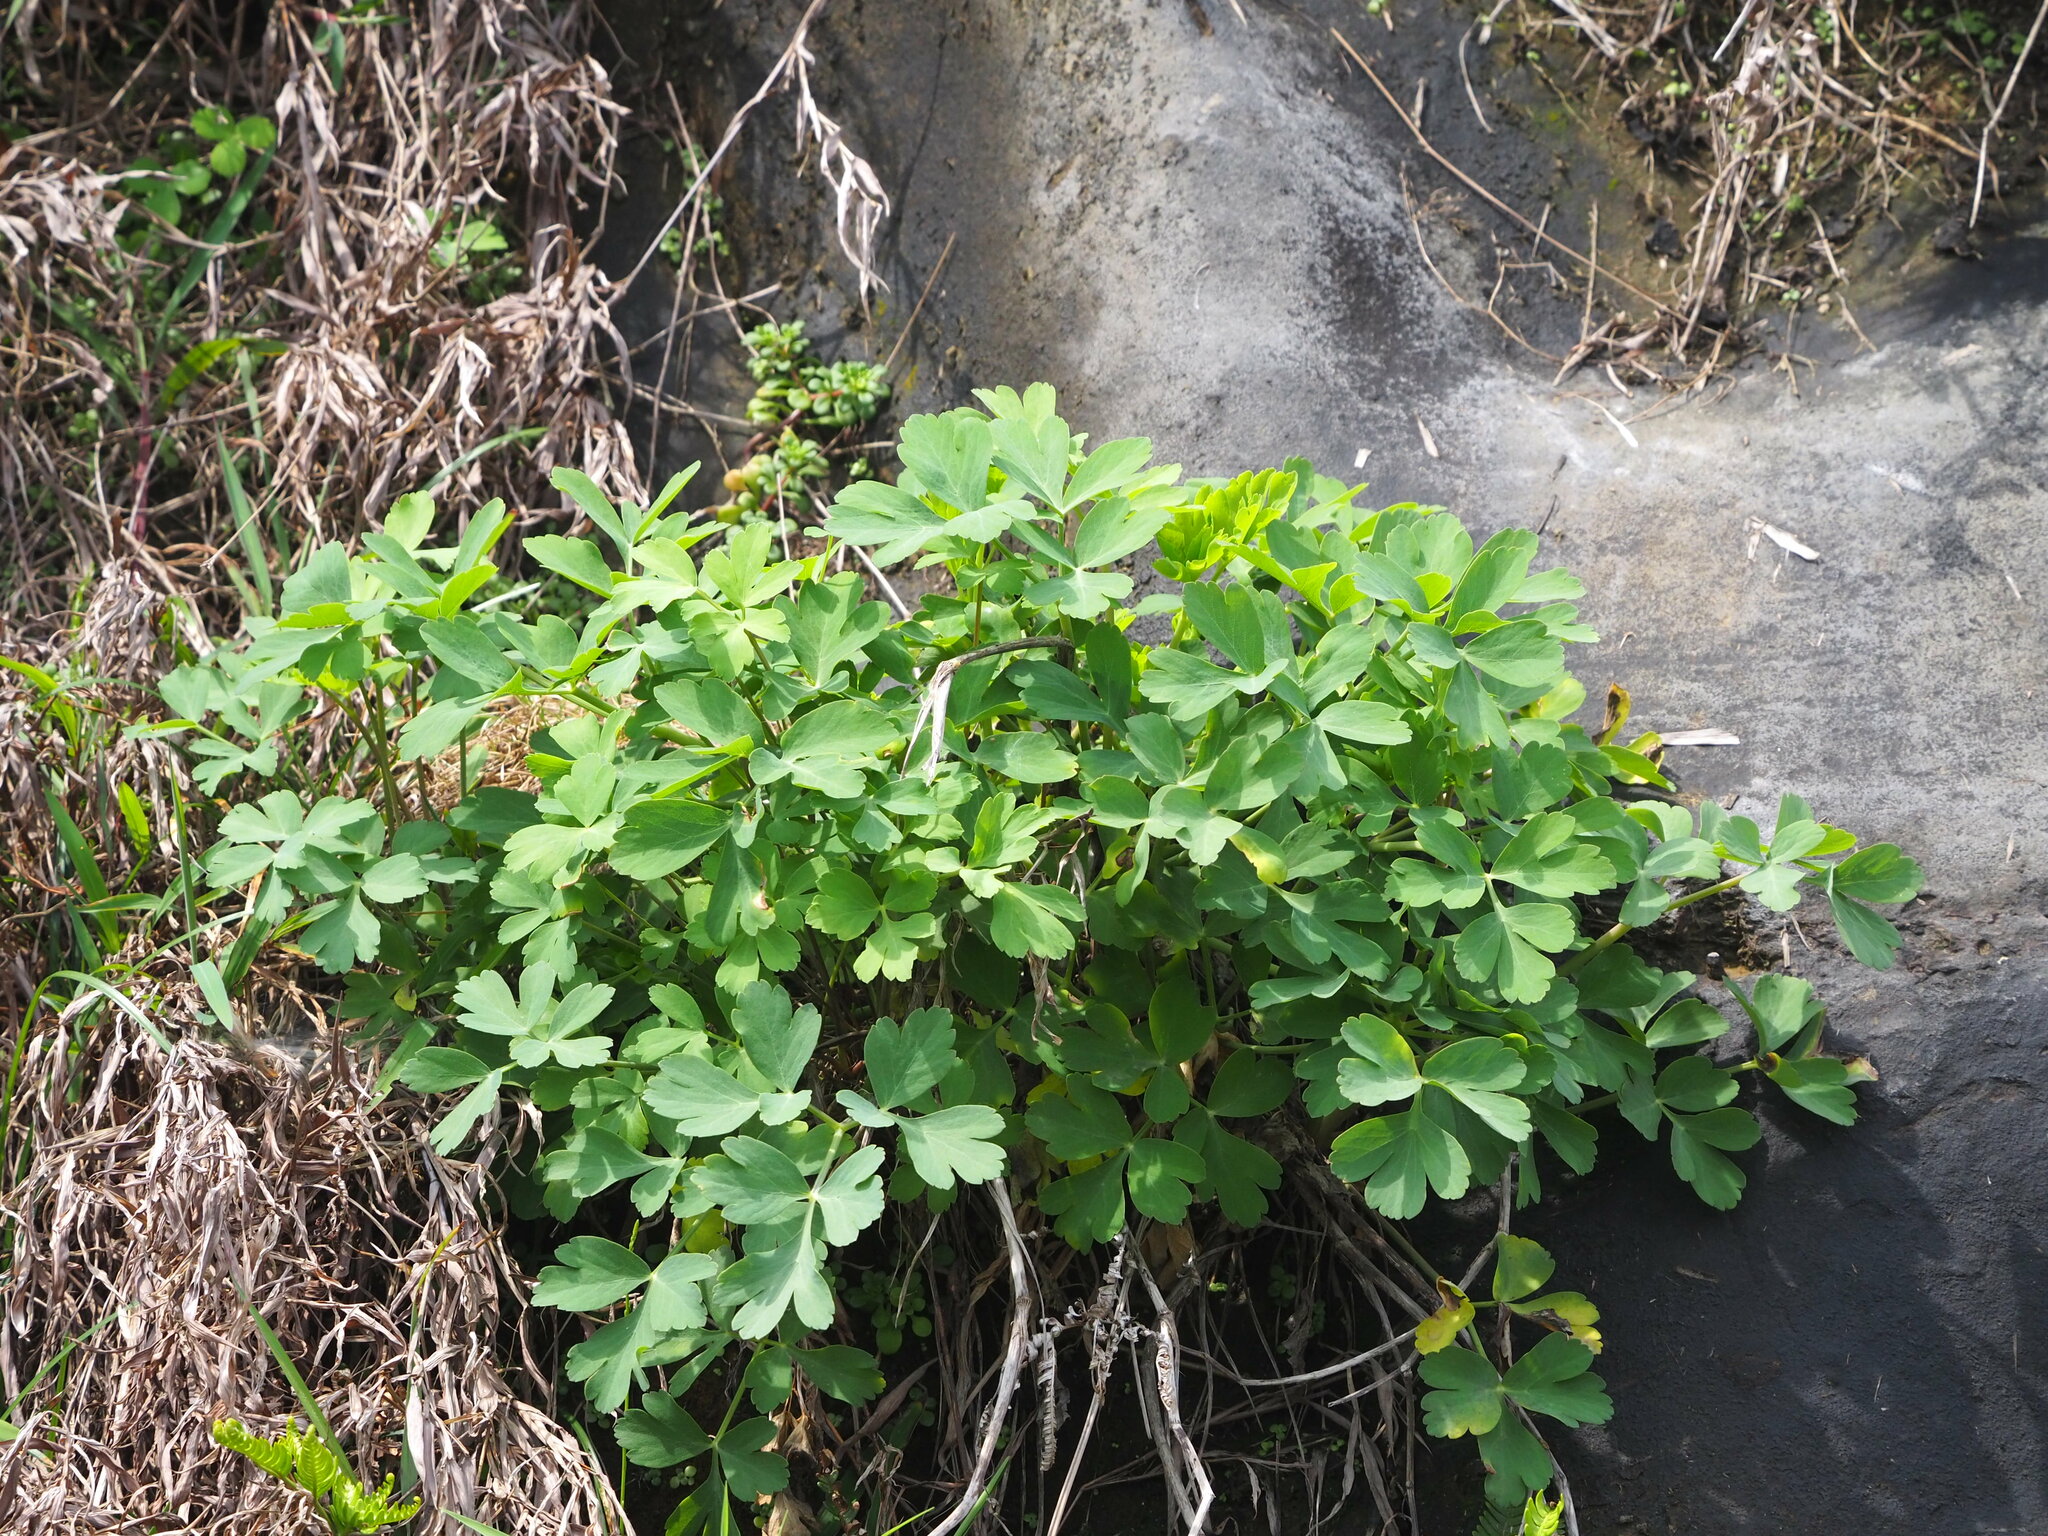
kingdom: Plantae
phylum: Tracheophyta
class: Magnoliopsida
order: Apiales
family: Apiaceae
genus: Peucedanum
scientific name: Peucedanum japonicum
